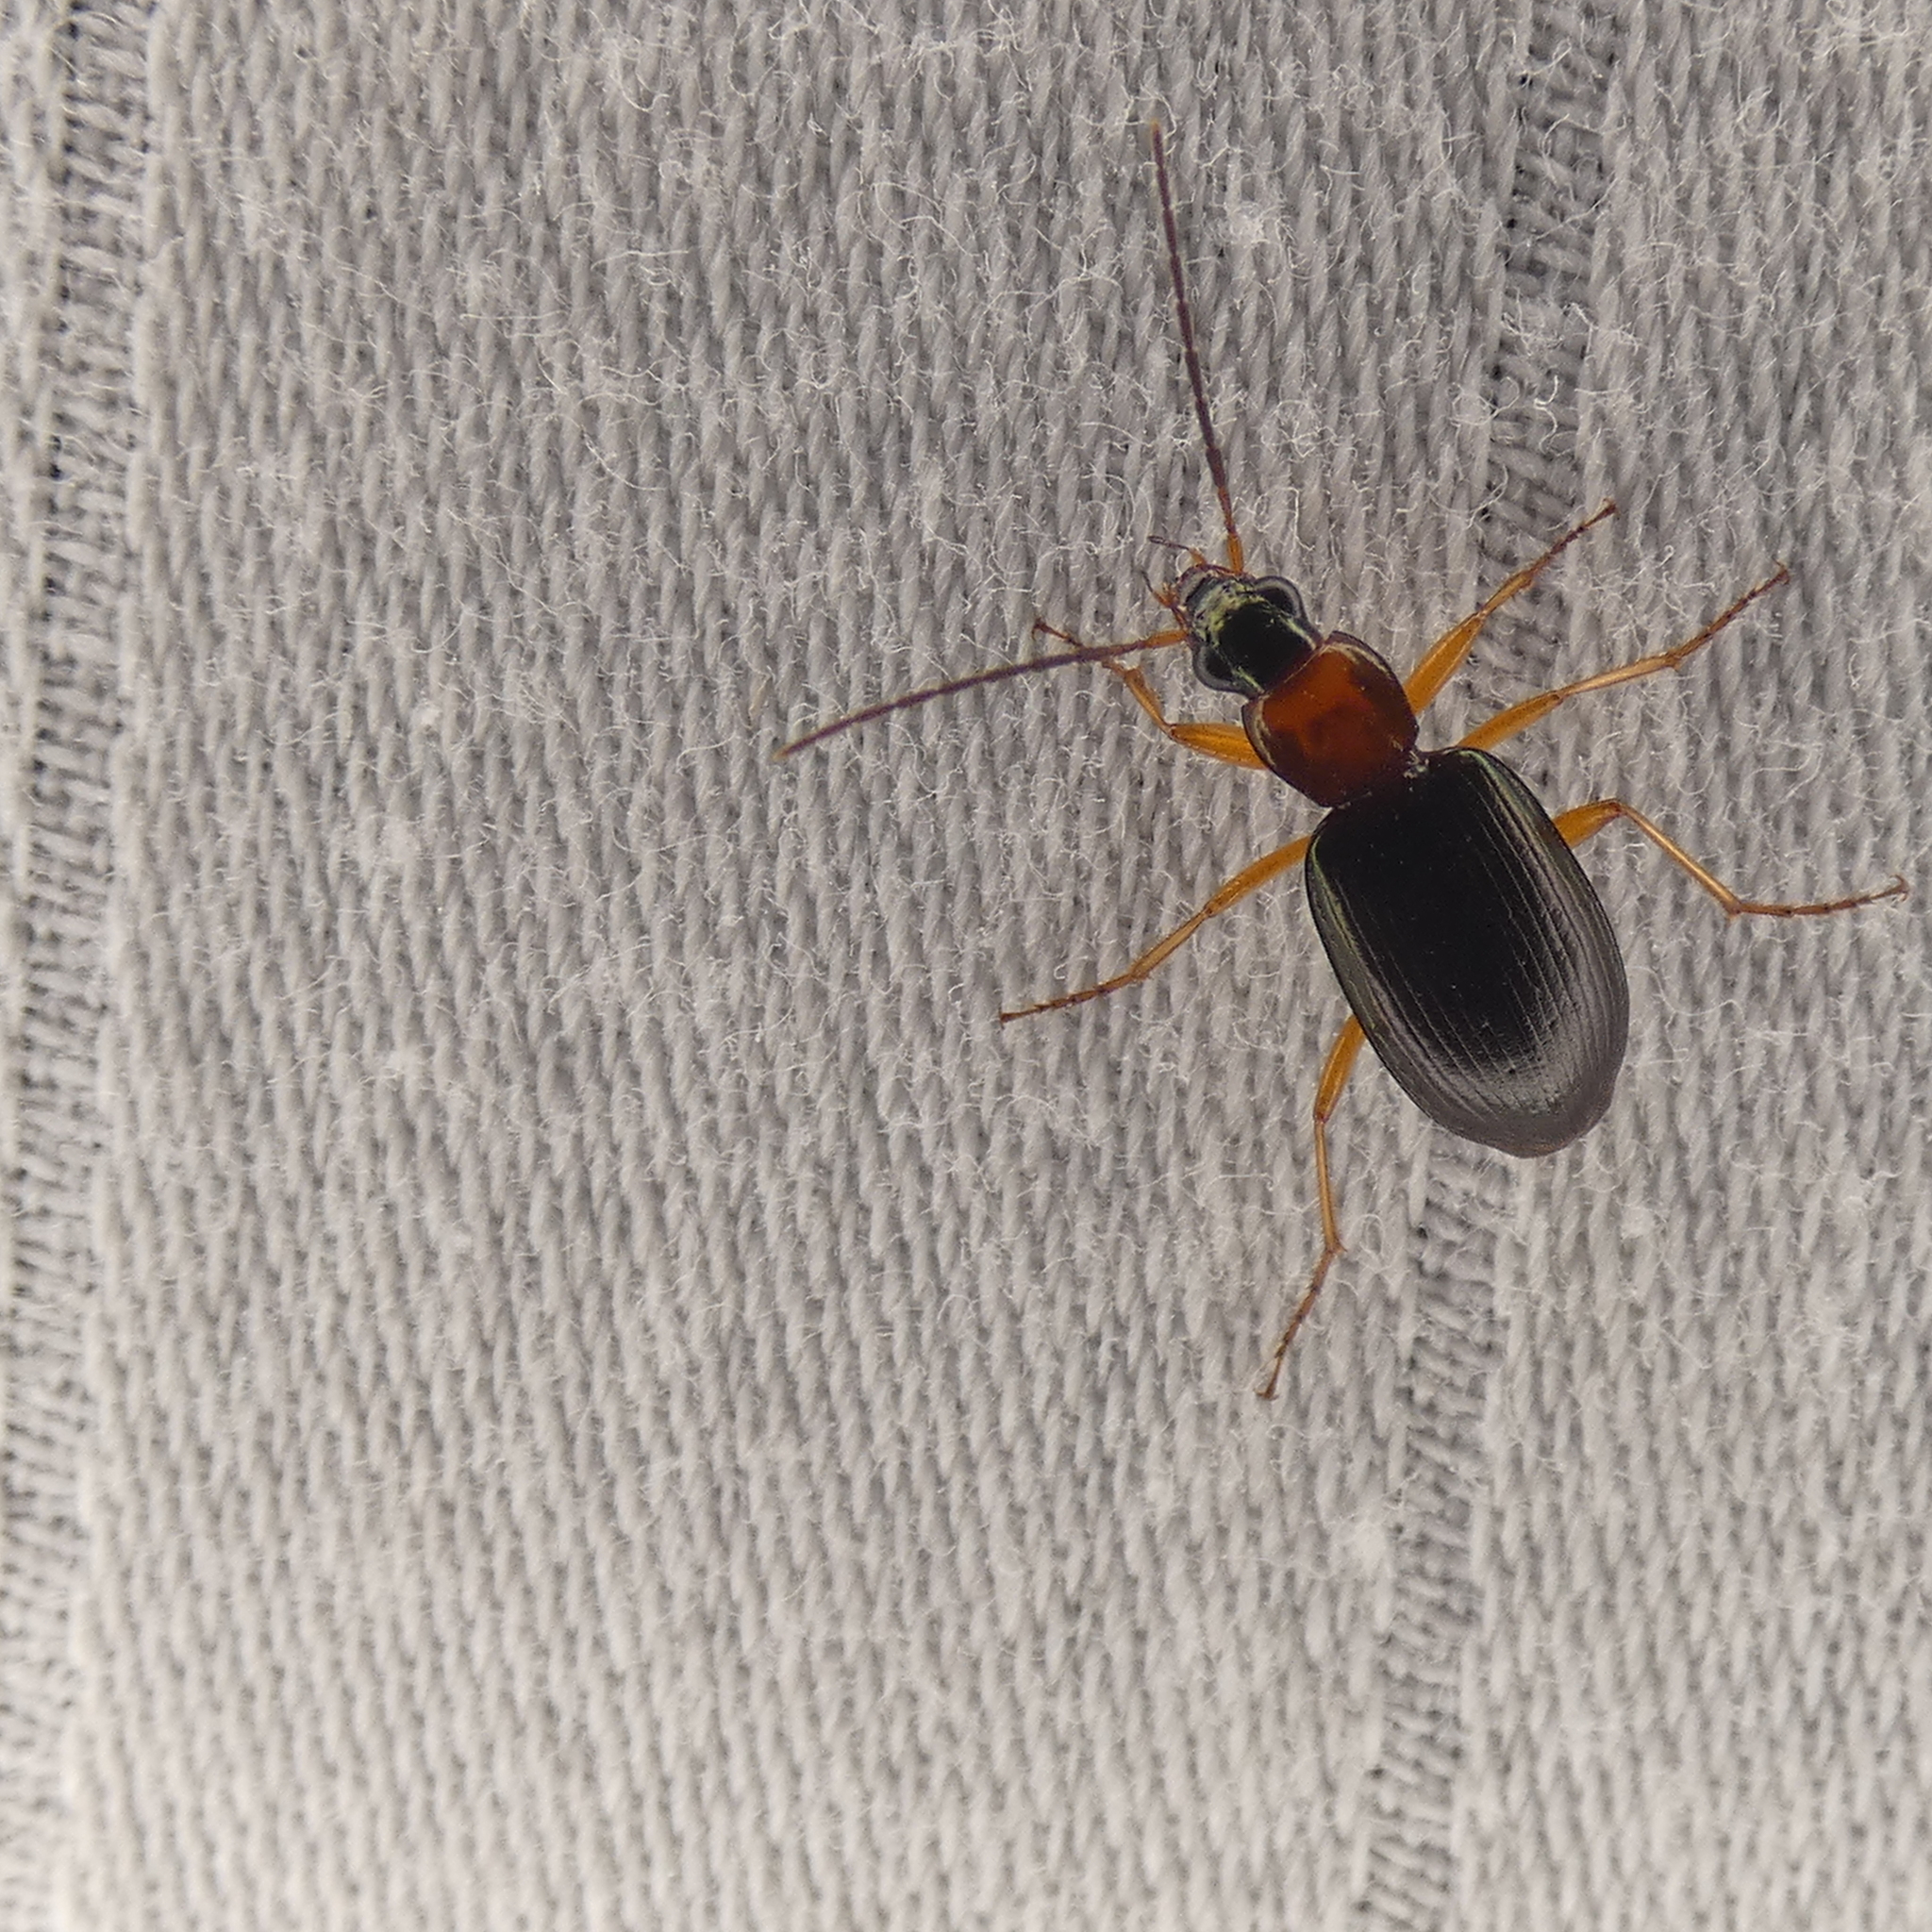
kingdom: Animalia
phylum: Arthropoda
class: Insecta
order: Coleoptera
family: Carabidae
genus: Agonum
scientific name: Agonum decorum
